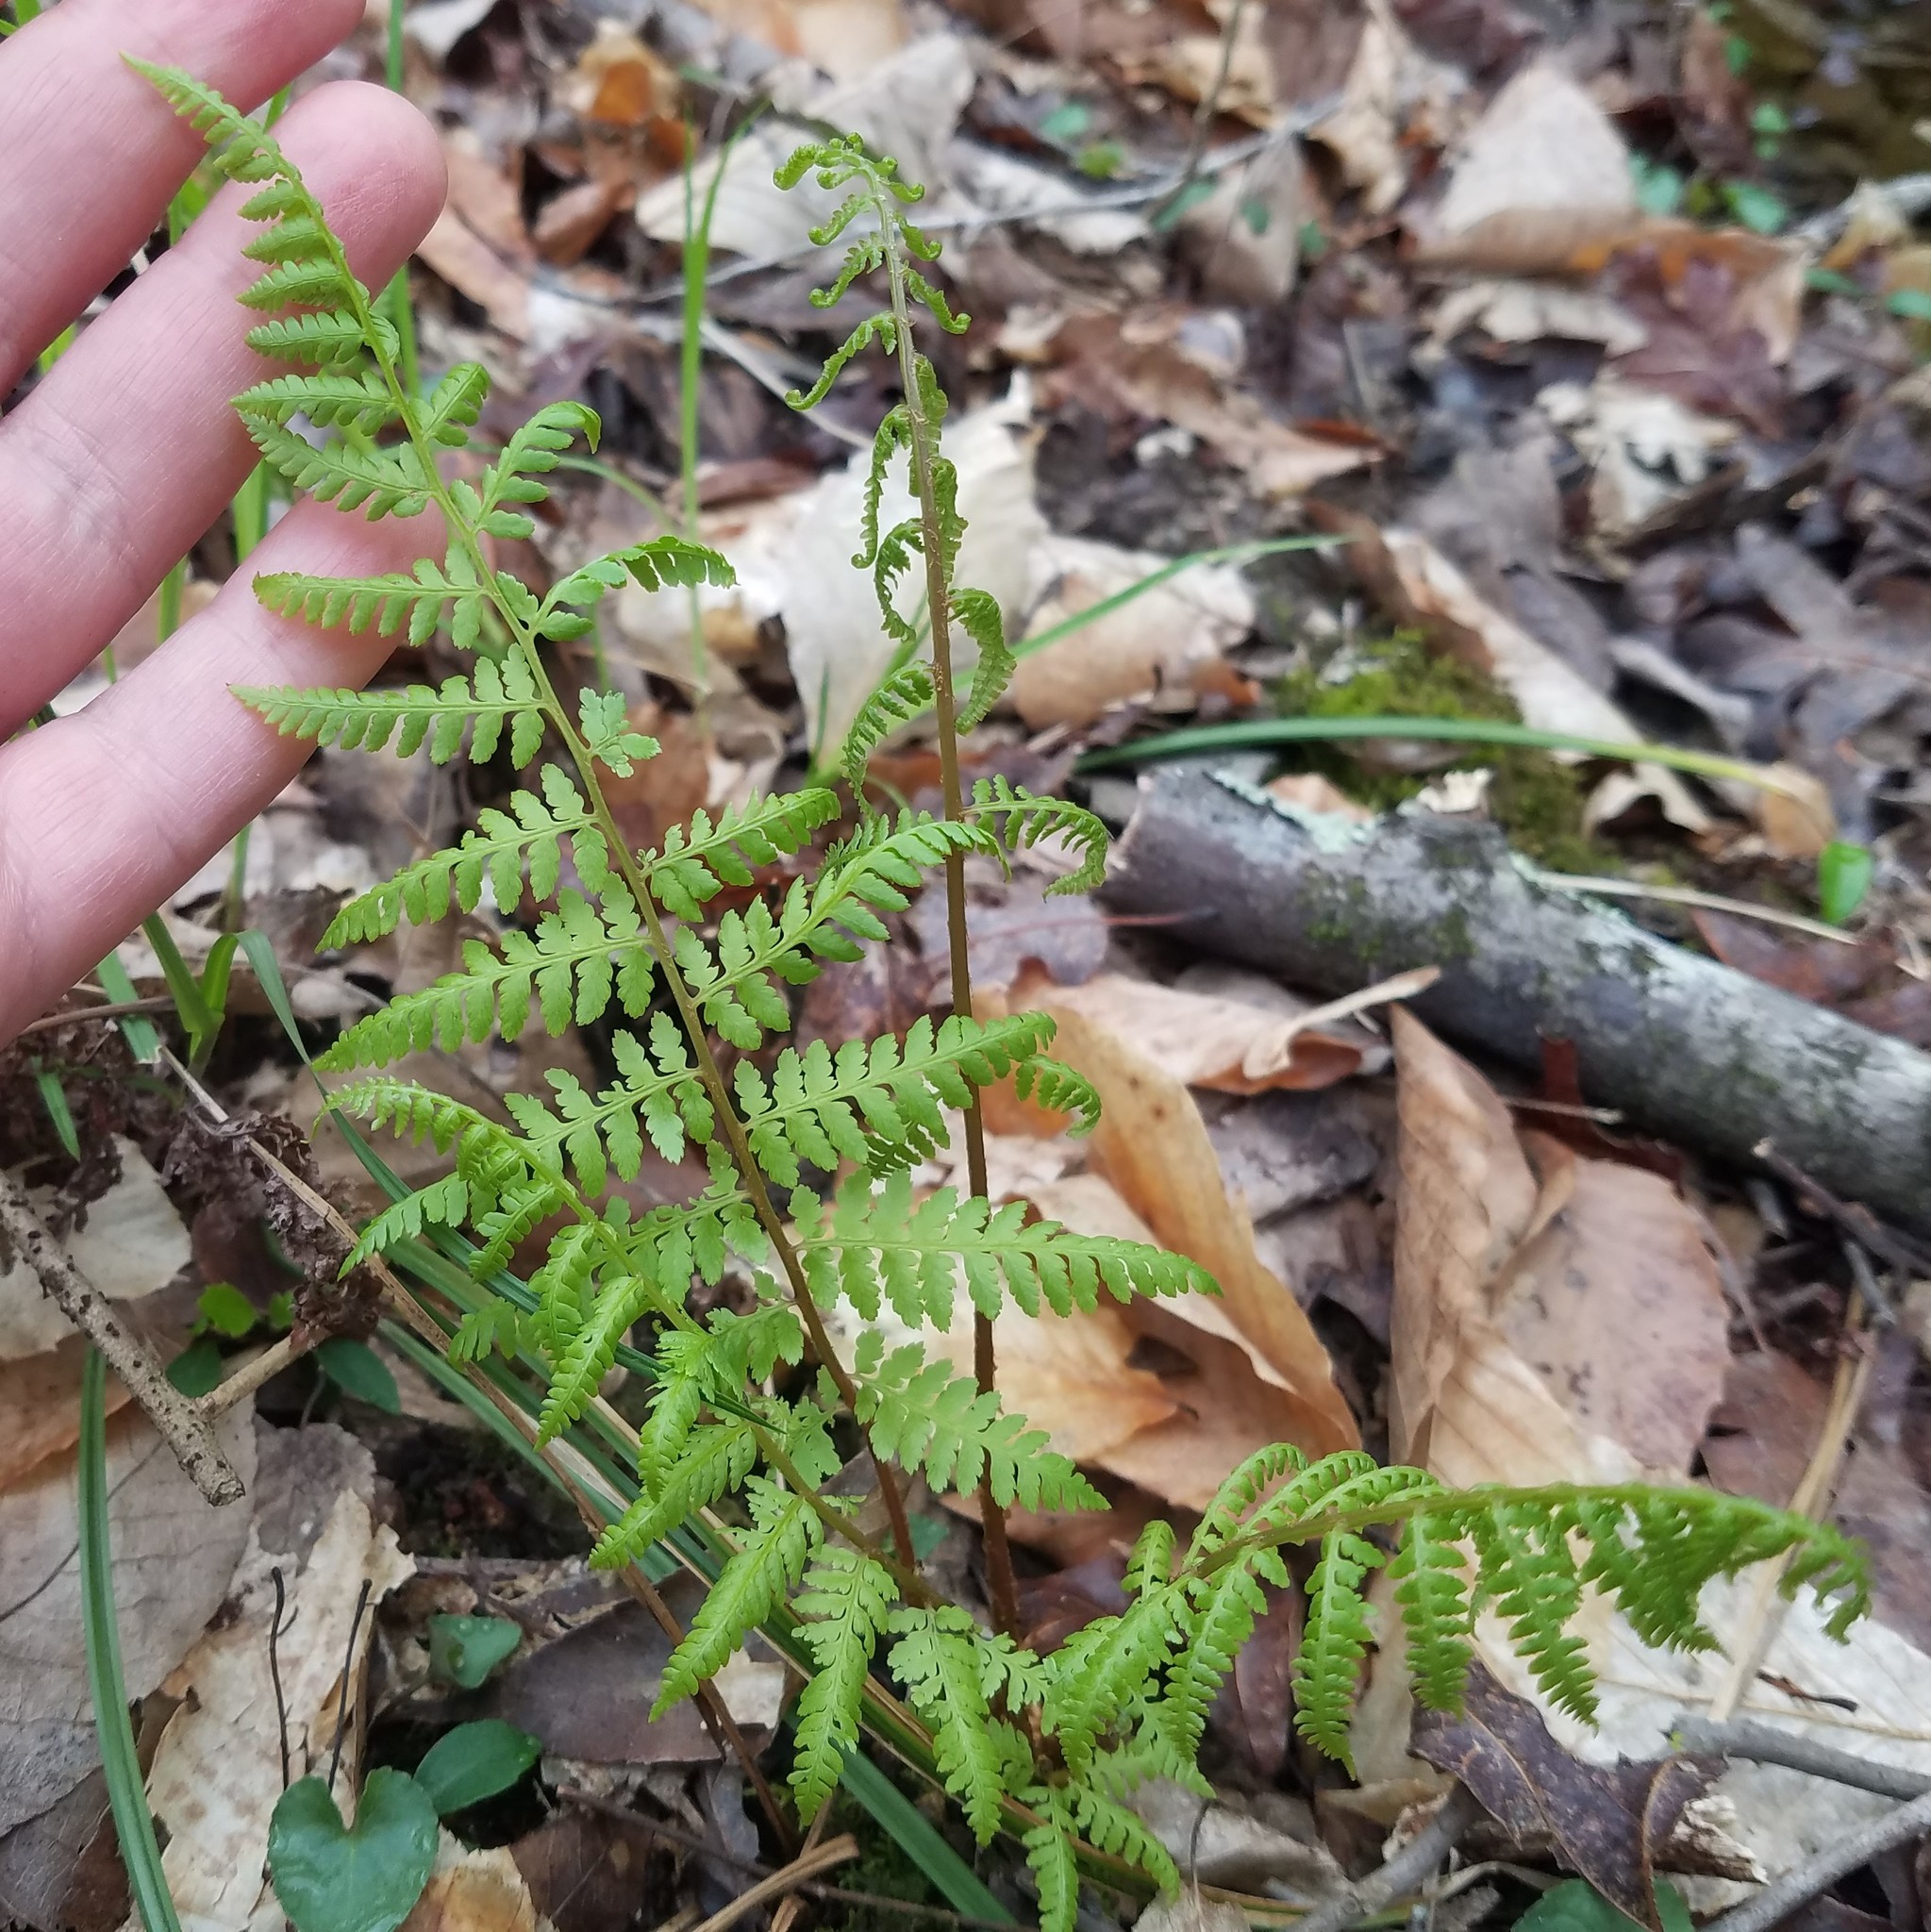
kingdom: Plantae
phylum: Tracheophyta
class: Polypodiopsida
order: Polypodiales
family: Athyriaceae
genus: Athyrium
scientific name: Athyrium asplenioides
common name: Southern lady fern
